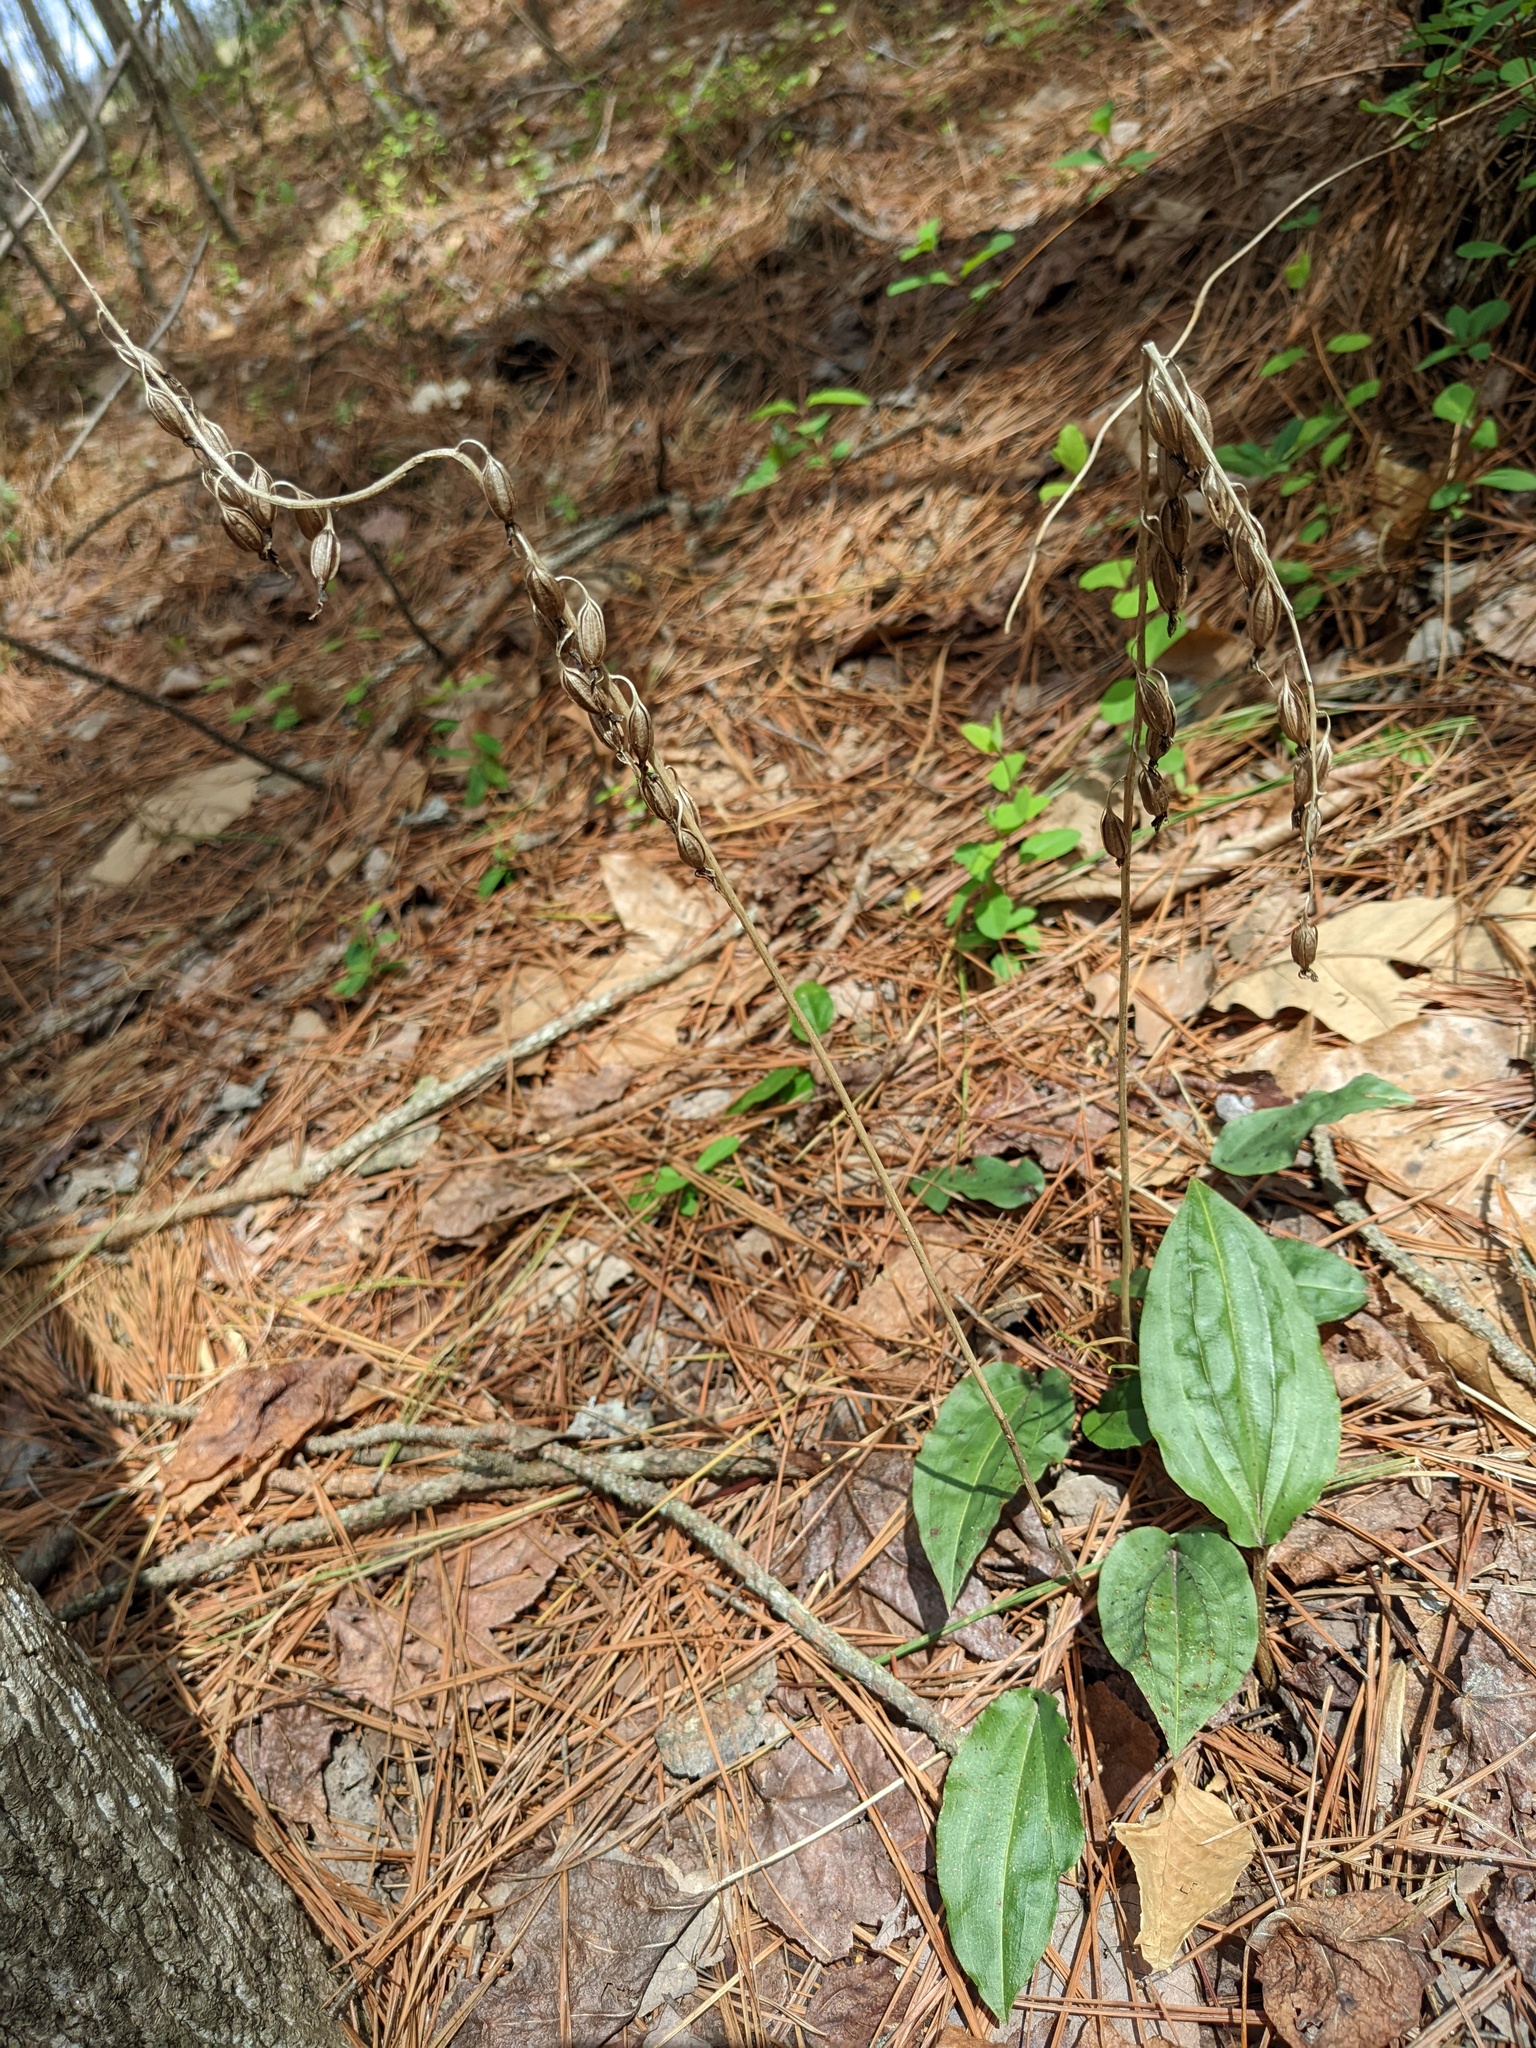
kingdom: Plantae
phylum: Tracheophyta
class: Liliopsida
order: Asparagales
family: Orchidaceae
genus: Tipularia
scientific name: Tipularia discolor
